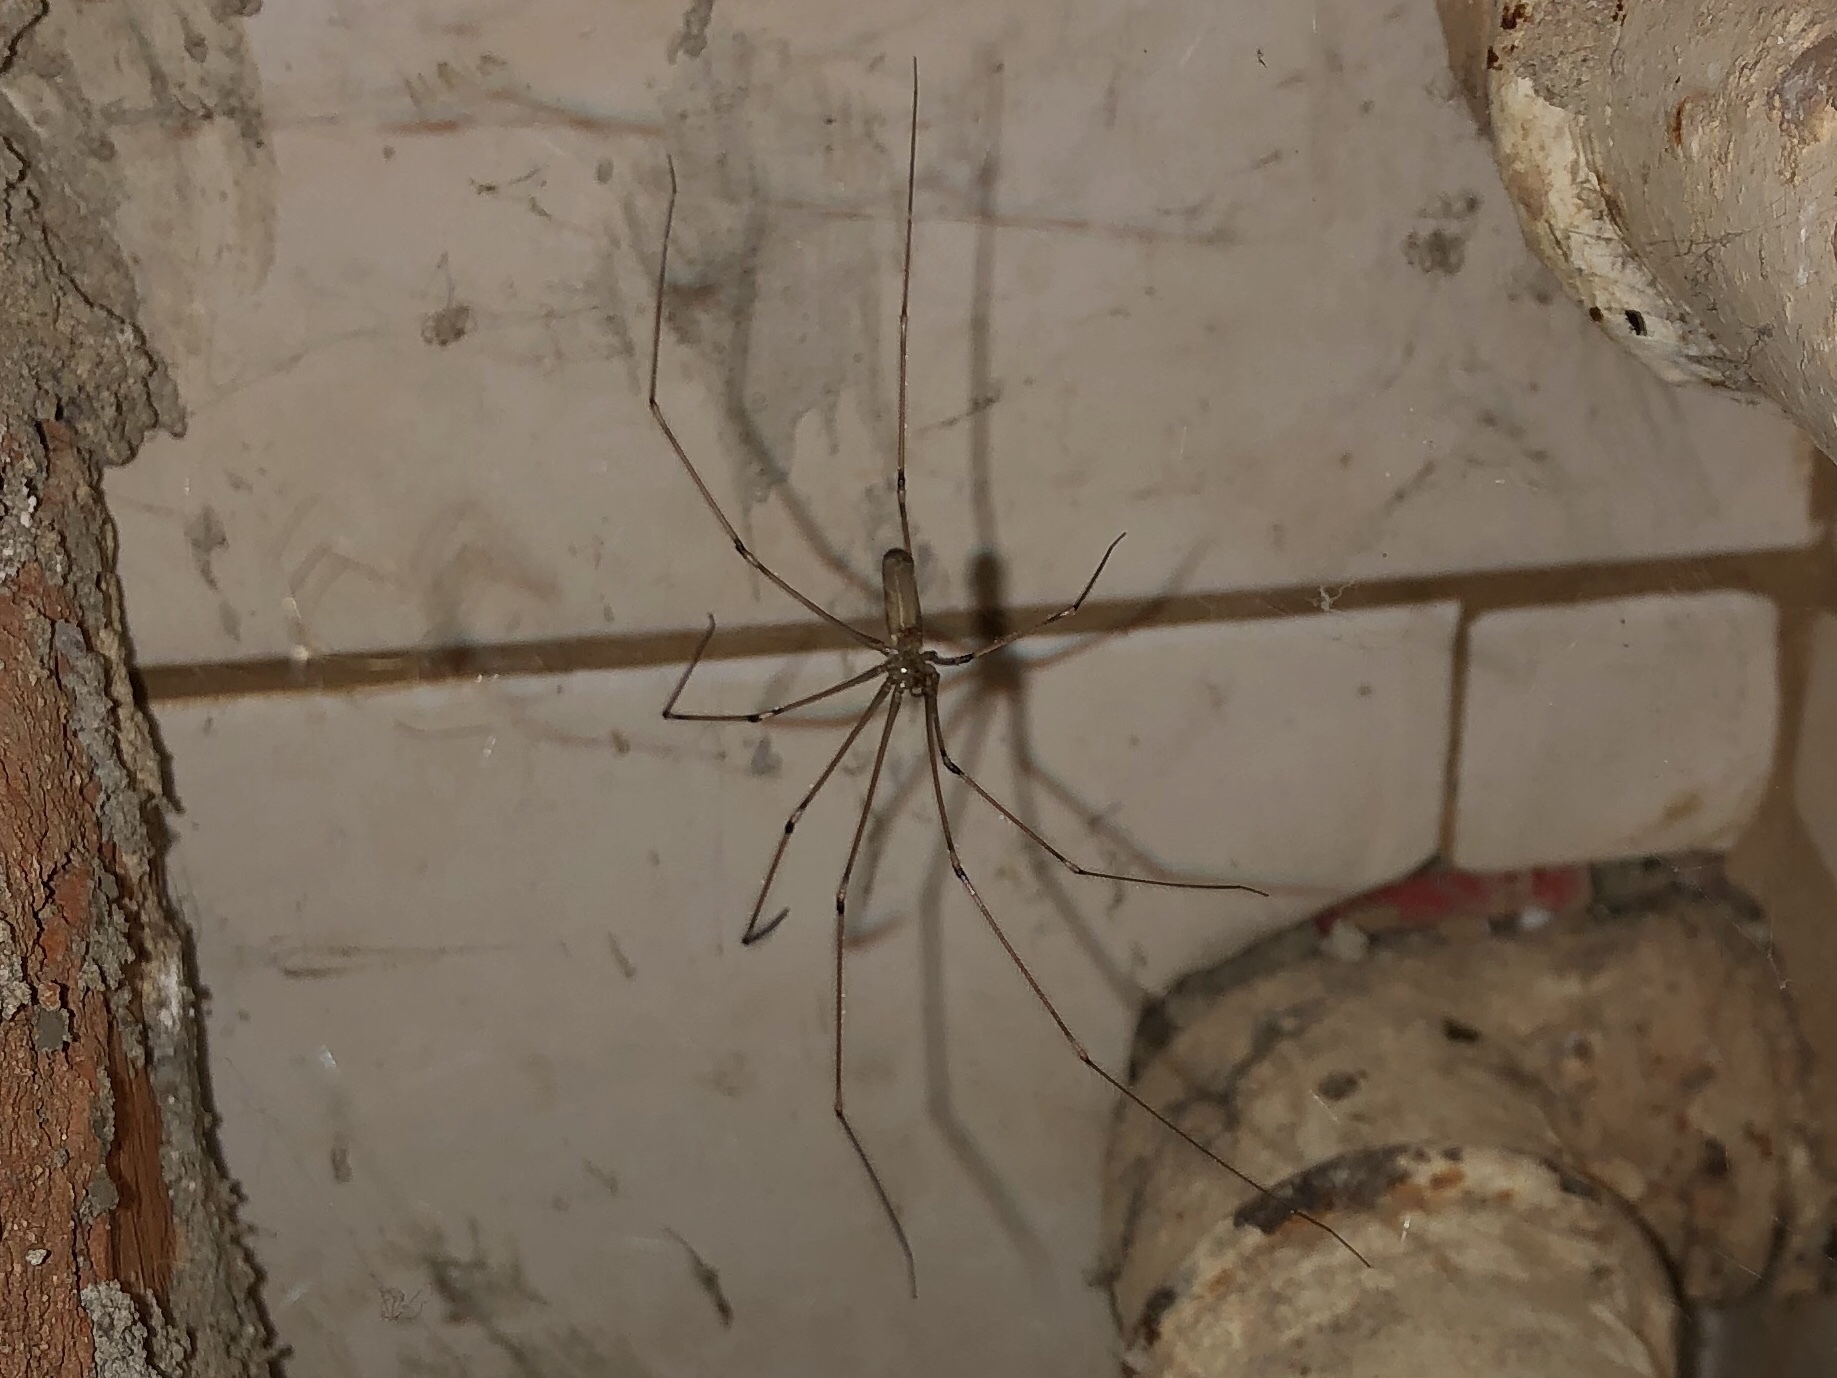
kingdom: Animalia
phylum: Arthropoda
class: Arachnida
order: Araneae
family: Pholcidae
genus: Pholcus
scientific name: Pholcus phalangioides
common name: Longbodied cellar spider
